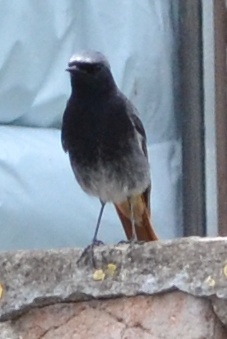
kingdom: Animalia
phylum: Chordata
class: Aves
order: Passeriformes
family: Muscicapidae
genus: Phoenicurus
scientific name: Phoenicurus ochruros
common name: Black redstart
